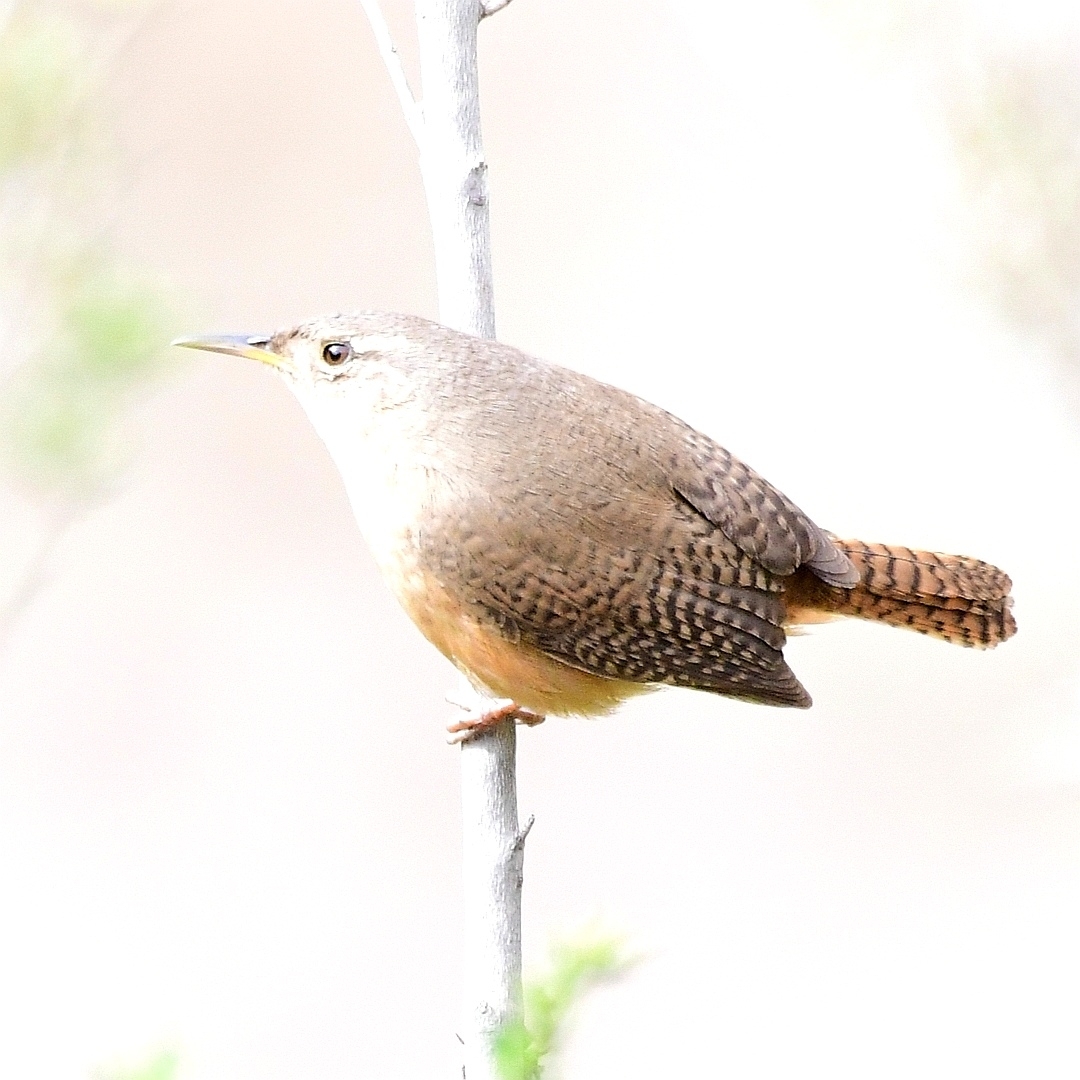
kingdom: Animalia
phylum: Chordata
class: Aves
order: Passeriformes
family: Troglodytidae
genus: Troglodytes
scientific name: Troglodytes aedon
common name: House wren
